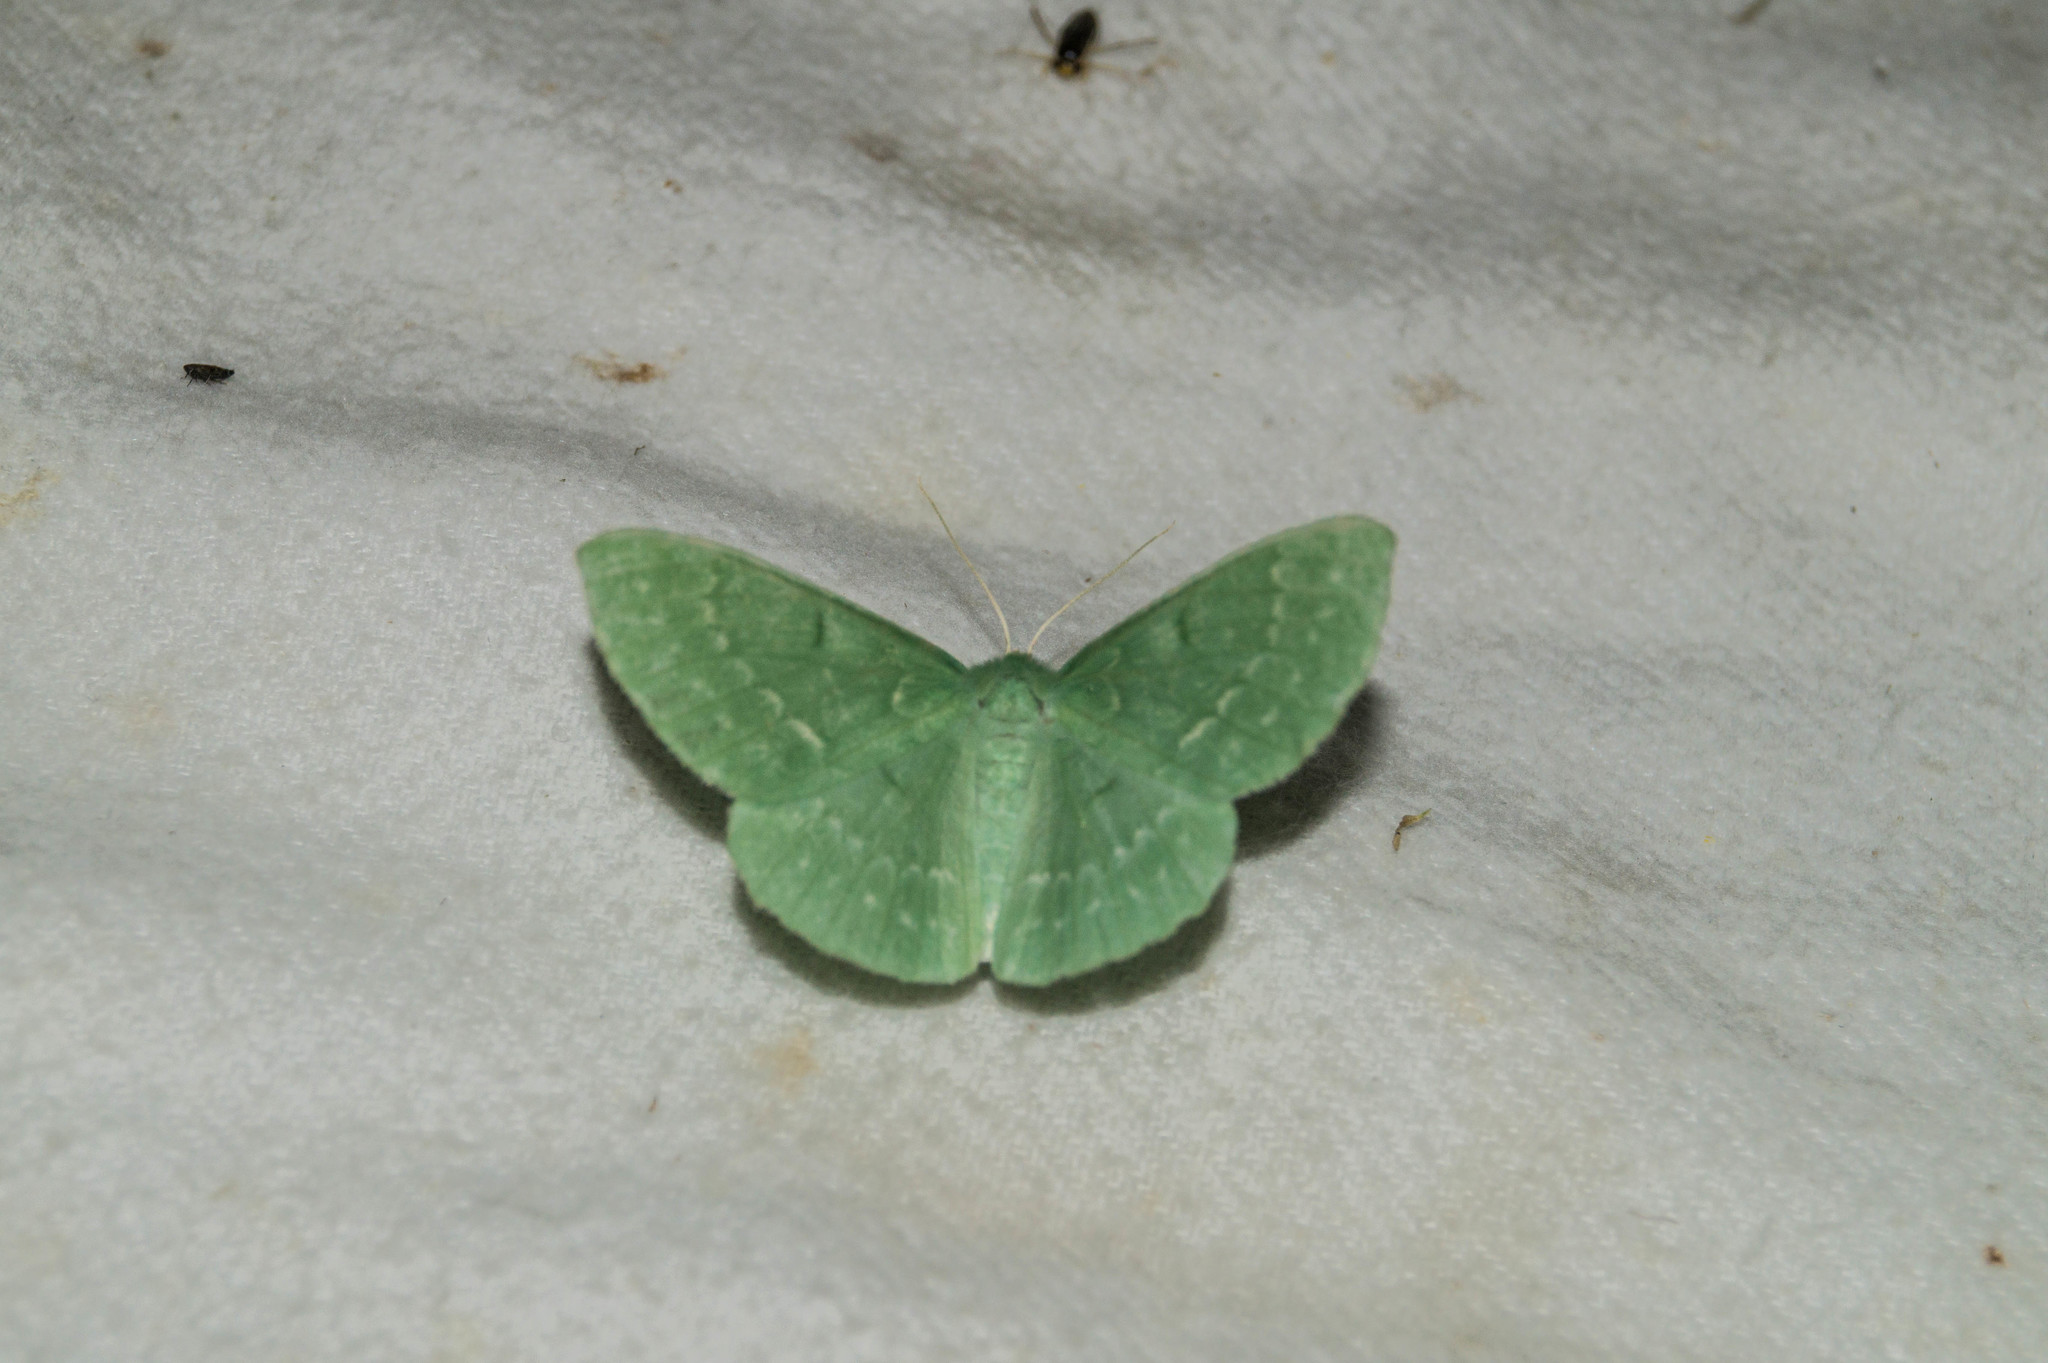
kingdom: Animalia
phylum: Arthropoda
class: Insecta
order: Lepidoptera
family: Geometridae
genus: Geometra
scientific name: Geometra papilionaria
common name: Large emerald
